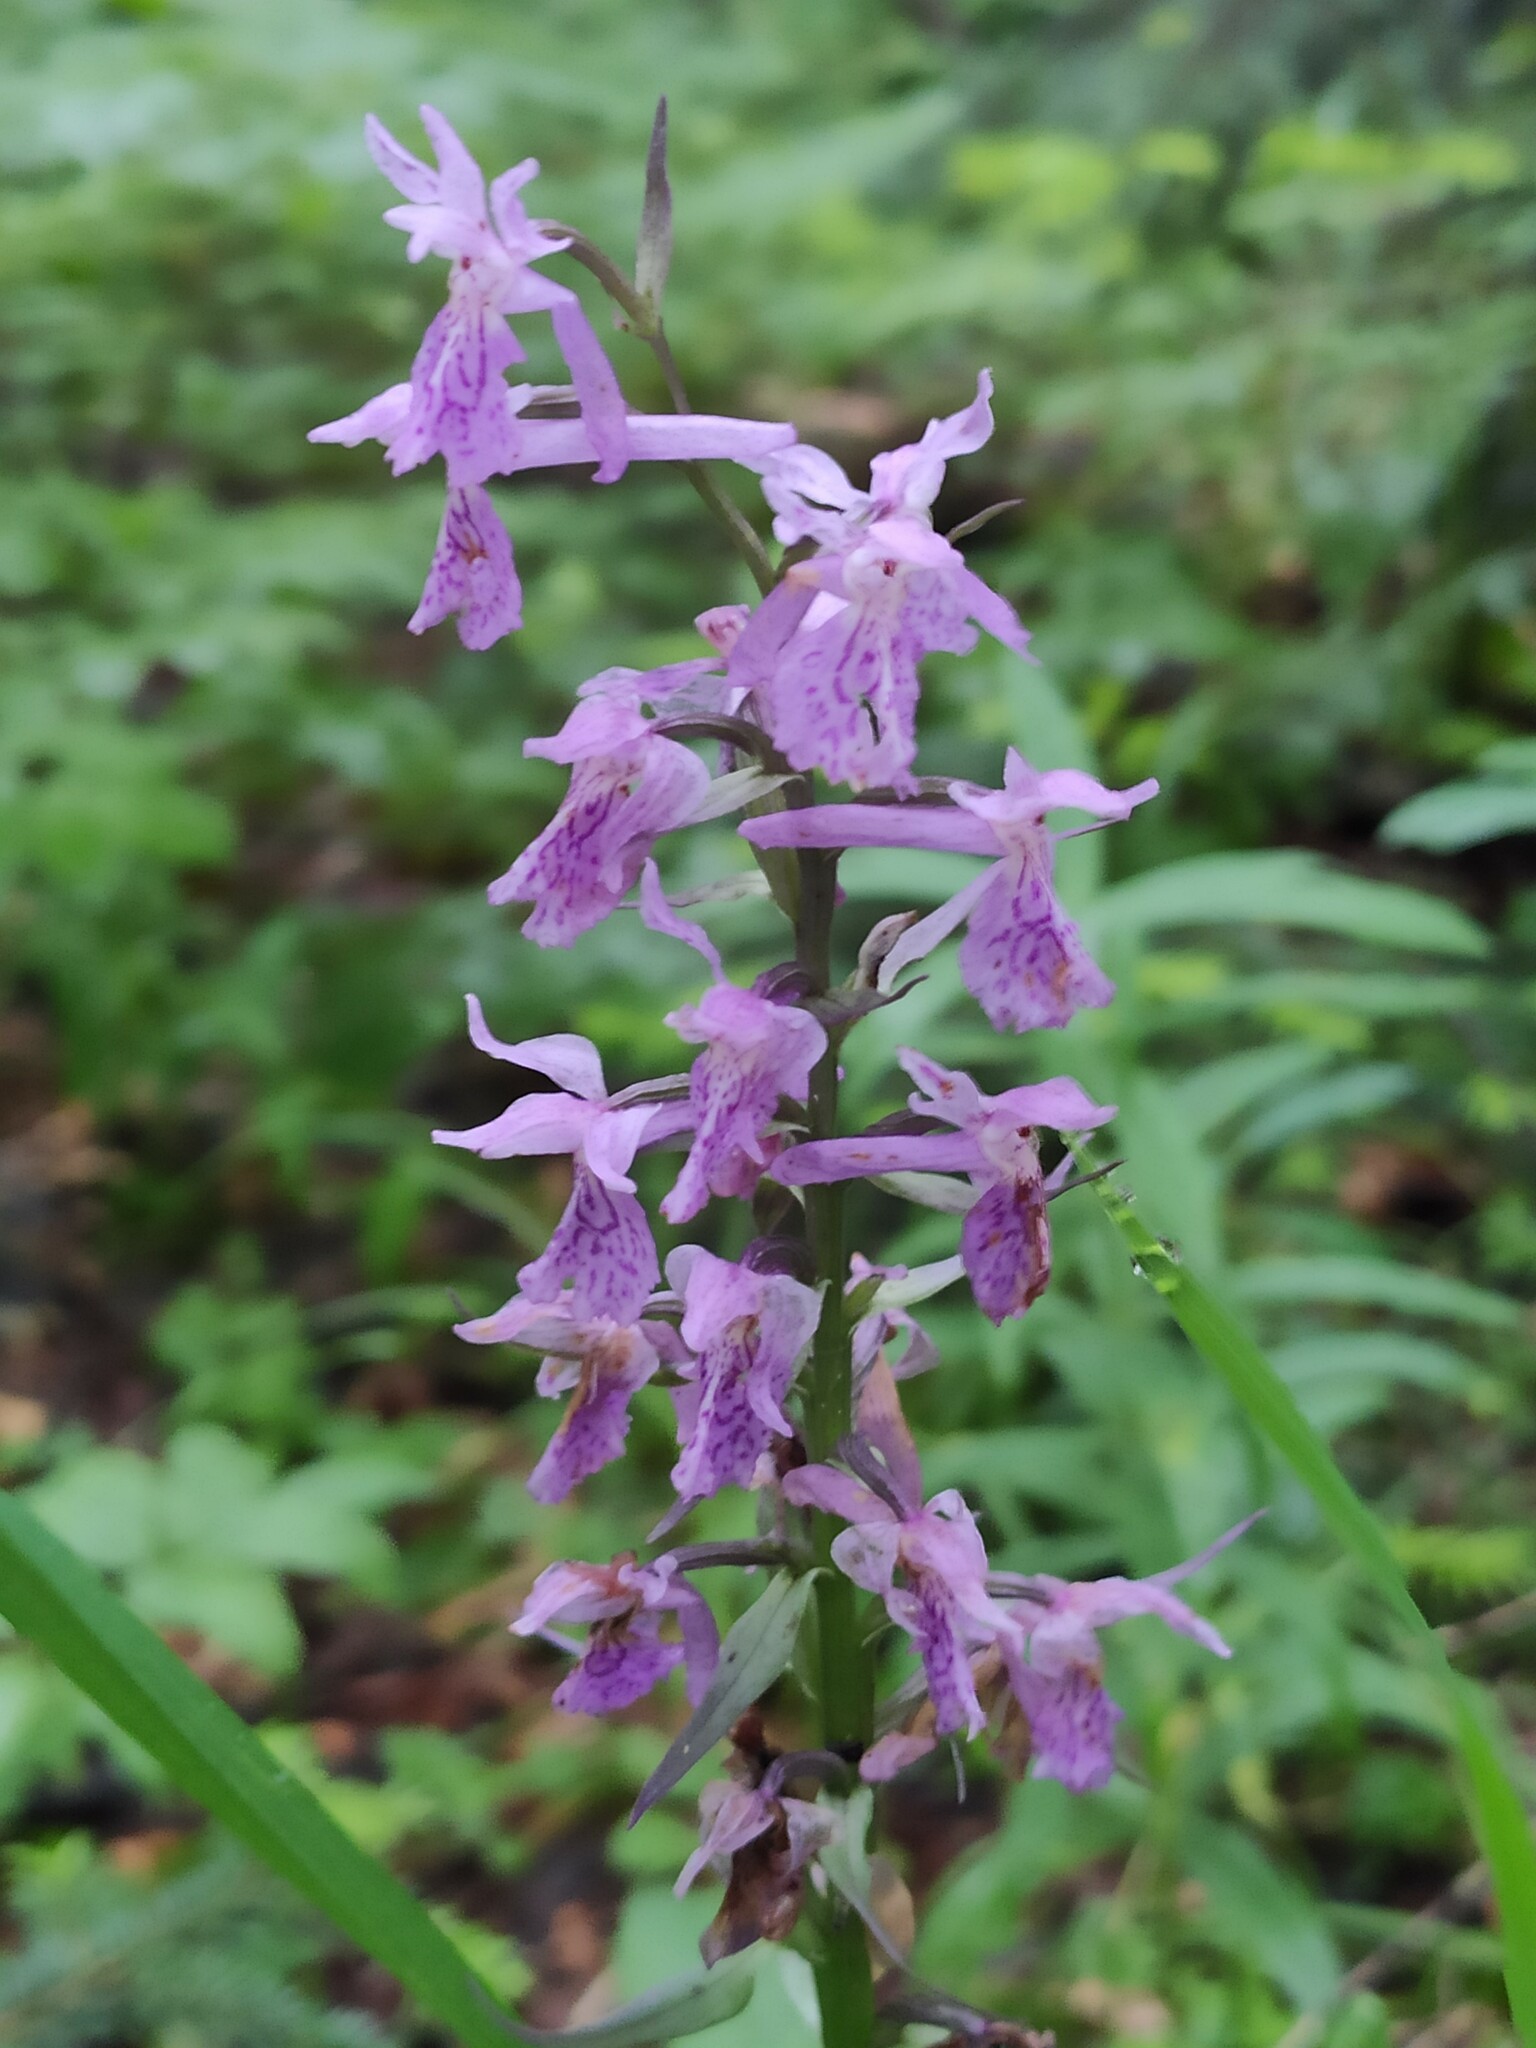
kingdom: Plantae
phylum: Tracheophyta
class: Liliopsida
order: Asparagales
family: Orchidaceae
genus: Dactylorhiza
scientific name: Dactylorhiza urvilleana
